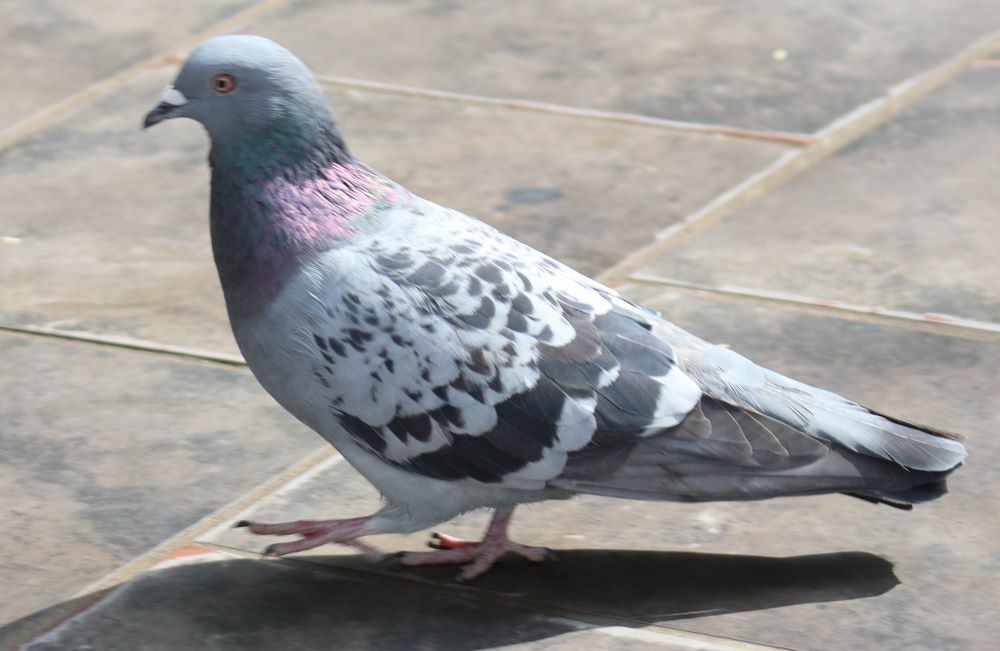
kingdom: Animalia
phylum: Chordata
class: Aves
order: Columbiformes
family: Columbidae
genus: Columba
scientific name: Columba livia
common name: Rock pigeon
